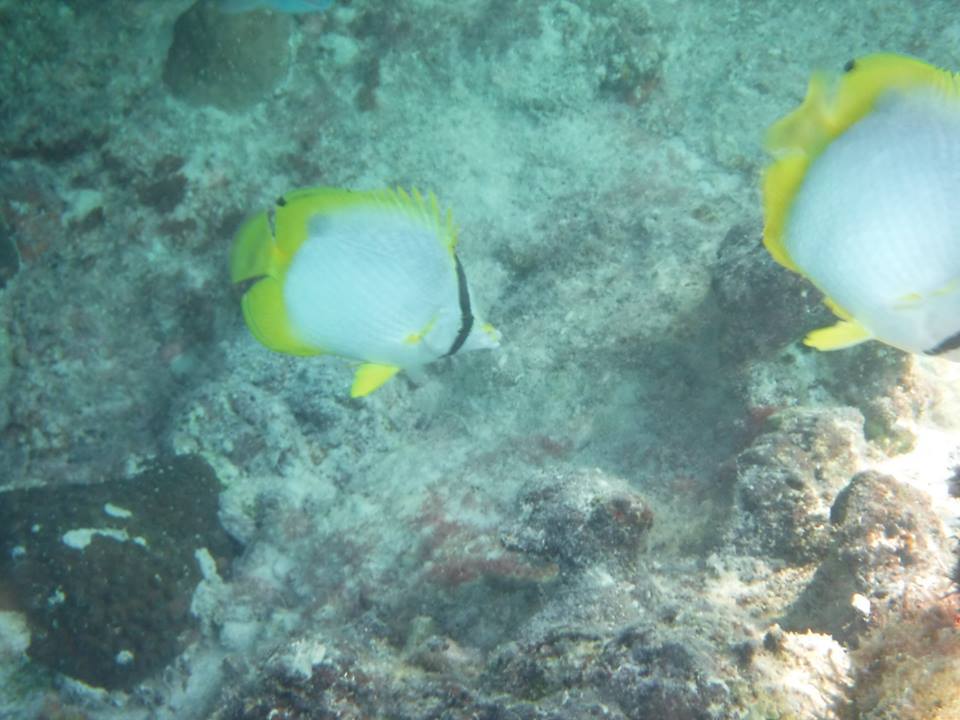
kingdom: Animalia
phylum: Chordata
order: Perciformes
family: Chaetodontidae
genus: Chaetodon
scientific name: Chaetodon ocellatus
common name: Spotfin butterflyfish
